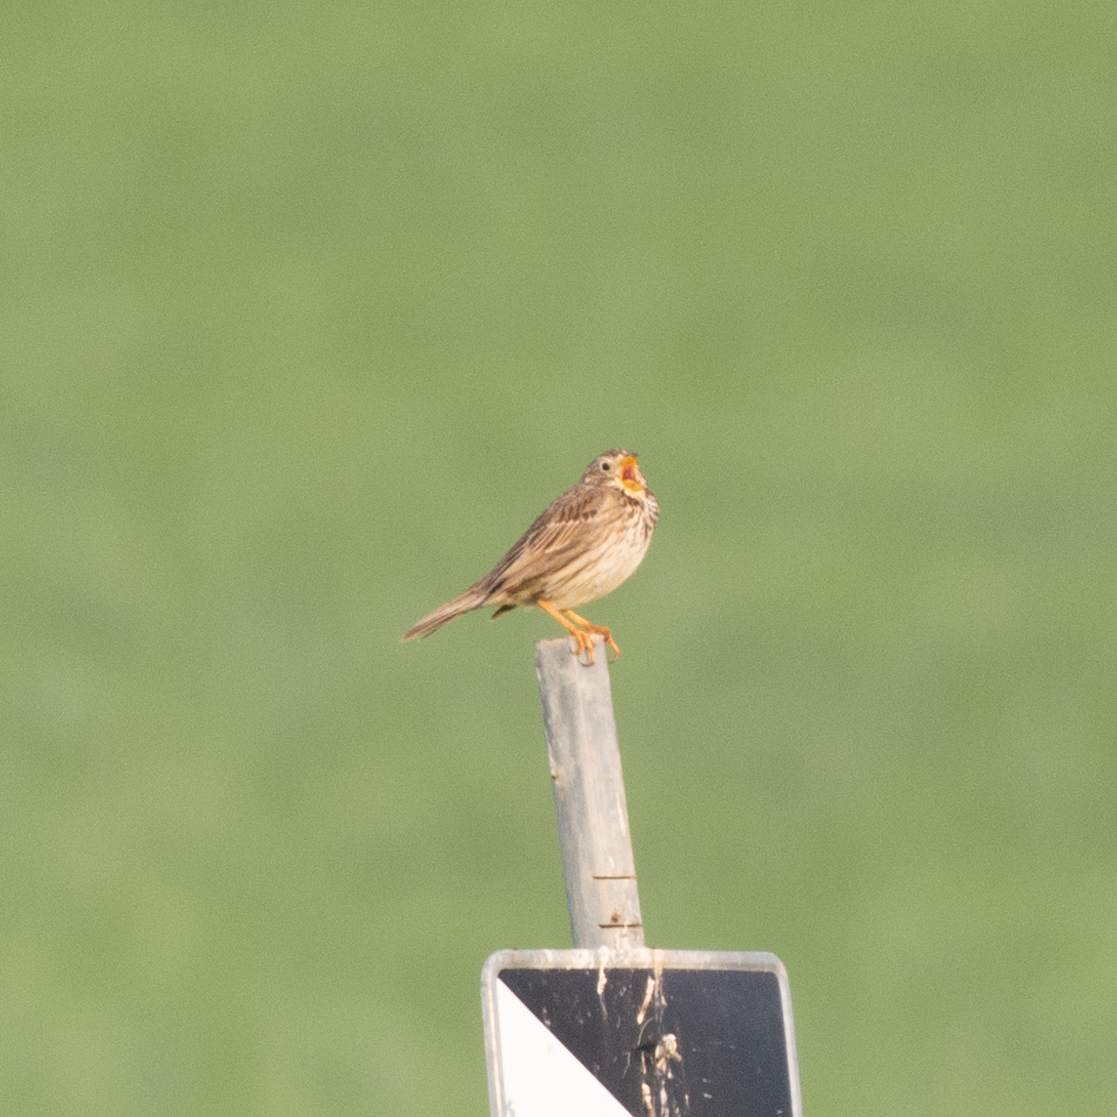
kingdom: Animalia
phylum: Chordata
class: Aves
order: Passeriformes
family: Emberizidae
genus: Emberiza
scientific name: Emberiza calandra
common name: Corn bunting
